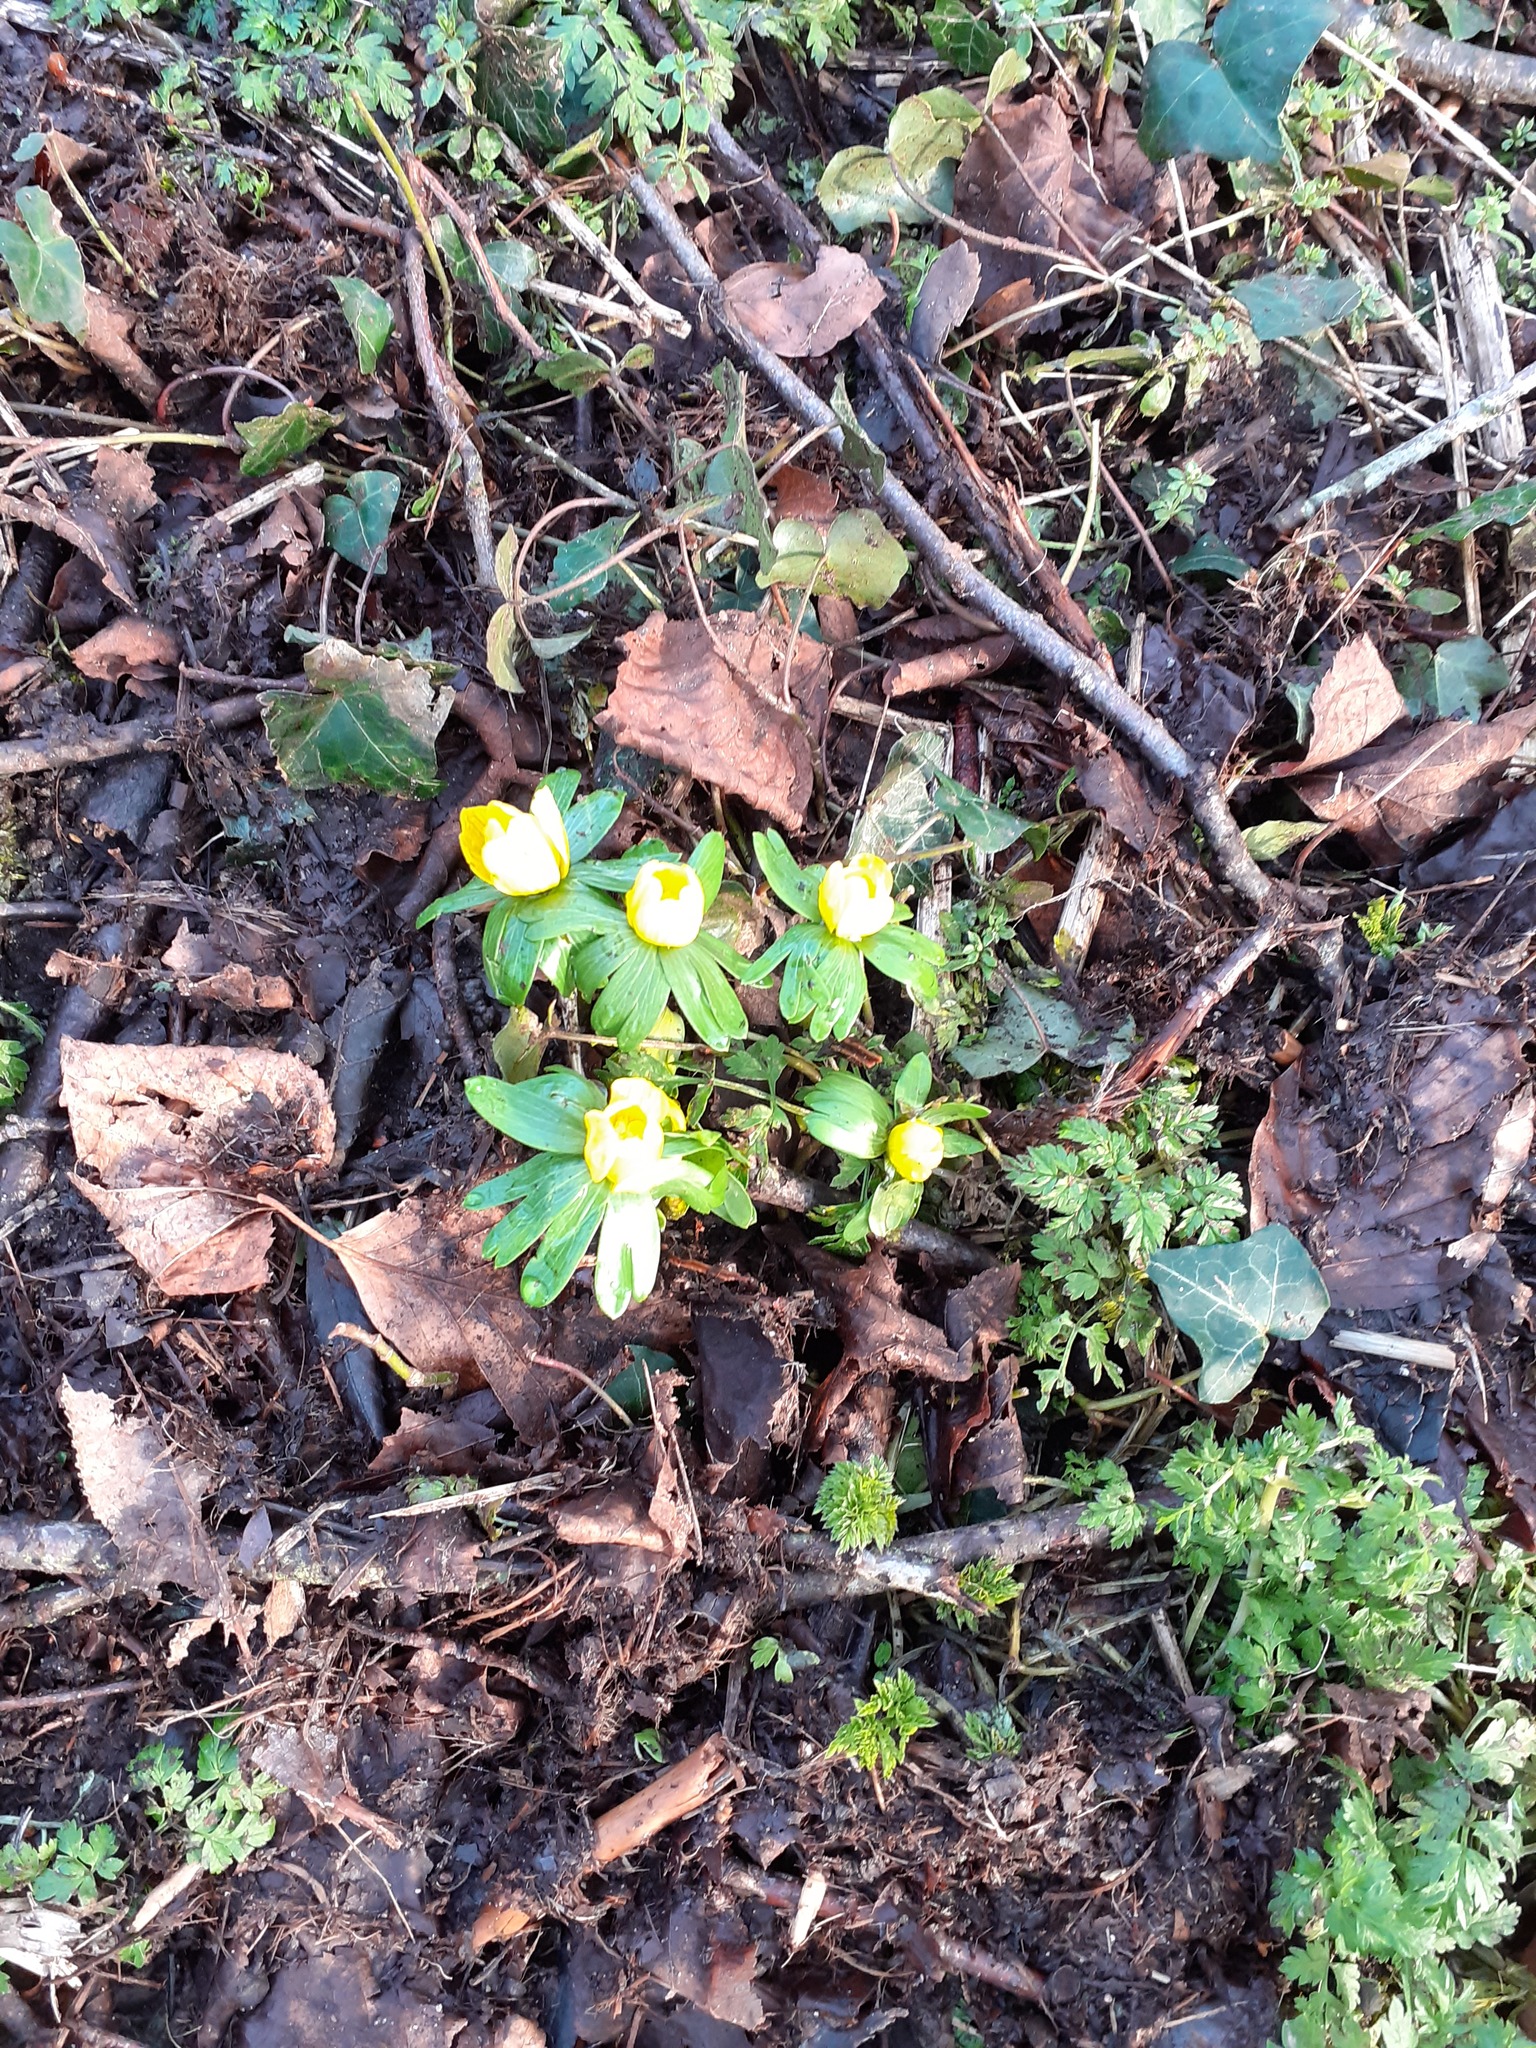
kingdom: Plantae
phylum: Tracheophyta
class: Magnoliopsida
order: Ranunculales
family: Ranunculaceae
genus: Eranthis
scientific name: Eranthis hyemalis
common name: Winter aconite
